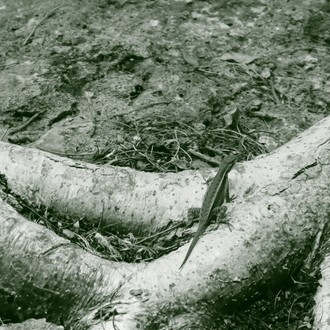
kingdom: Animalia
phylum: Chordata
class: Squamata
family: Phrynosomatidae
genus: Sceloporus
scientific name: Sceloporus chrysostictus
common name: Yellow-spotted spiny lizard
